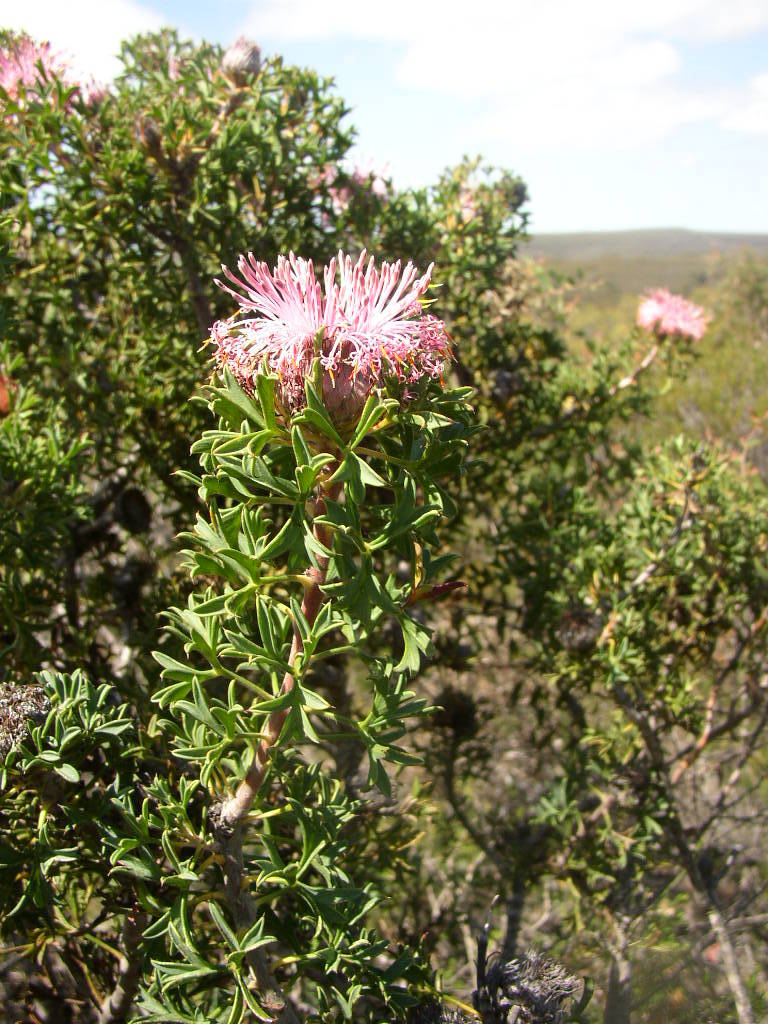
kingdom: Plantae
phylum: Tracheophyta
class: Magnoliopsida
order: Proteales
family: Proteaceae
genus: Isopogon
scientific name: Isopogon dubius
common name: Pincushion-coneflower
